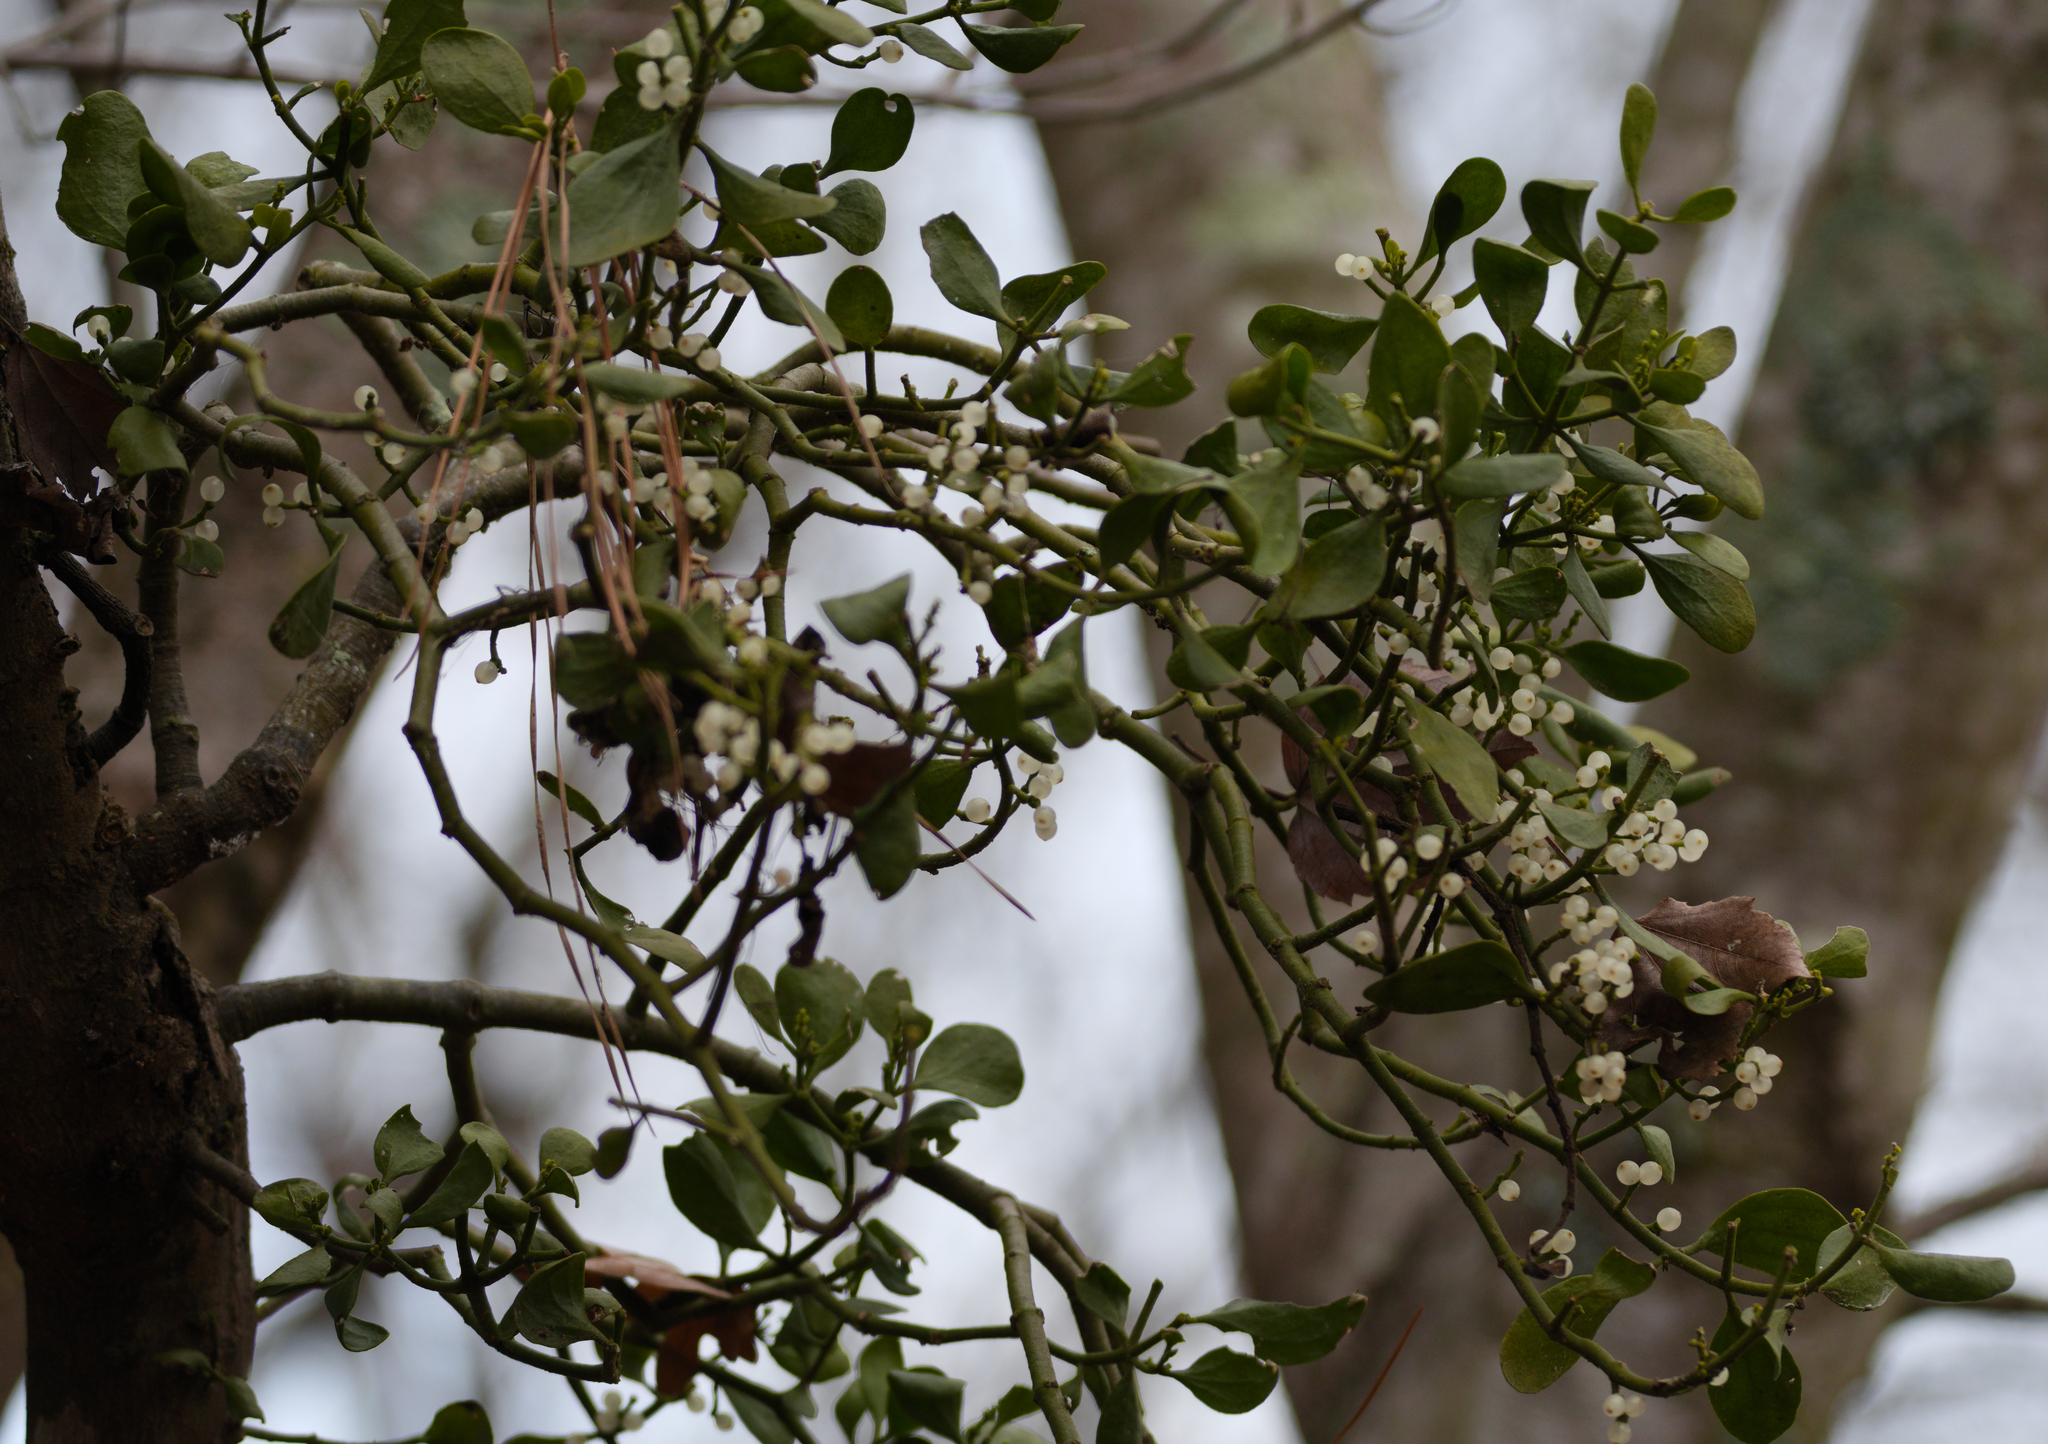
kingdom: Plantae
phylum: Tracheophyta
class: Magnoliopsida
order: Santalales
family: Viscaceae
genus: Phoradendron
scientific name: Phoradendron leucarpum
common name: Pacific mistletoe
